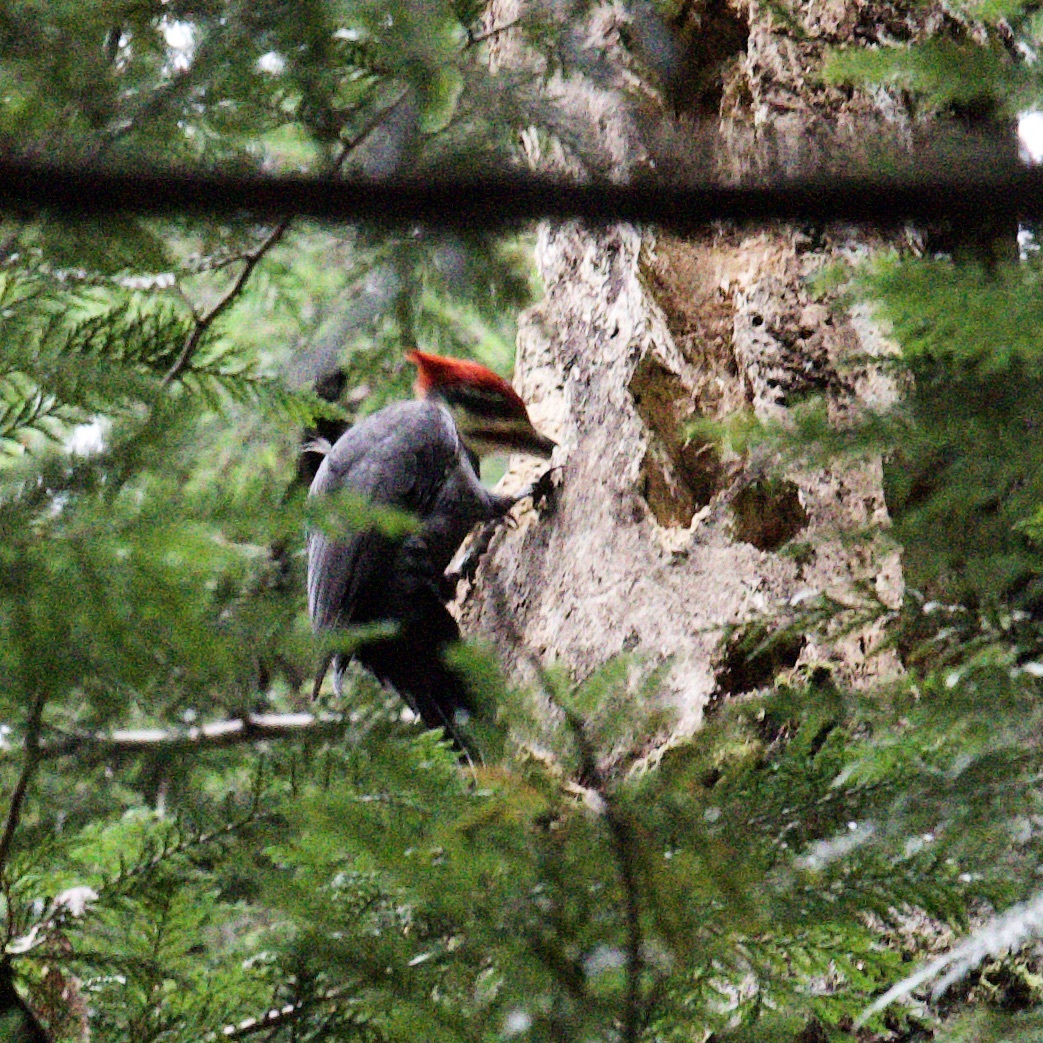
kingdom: Animalia
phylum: Chordata
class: Aves
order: Piciformes
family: Picidae
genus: Dryocopus
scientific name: Dryocopus pileatus
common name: Pileated woodpecker
